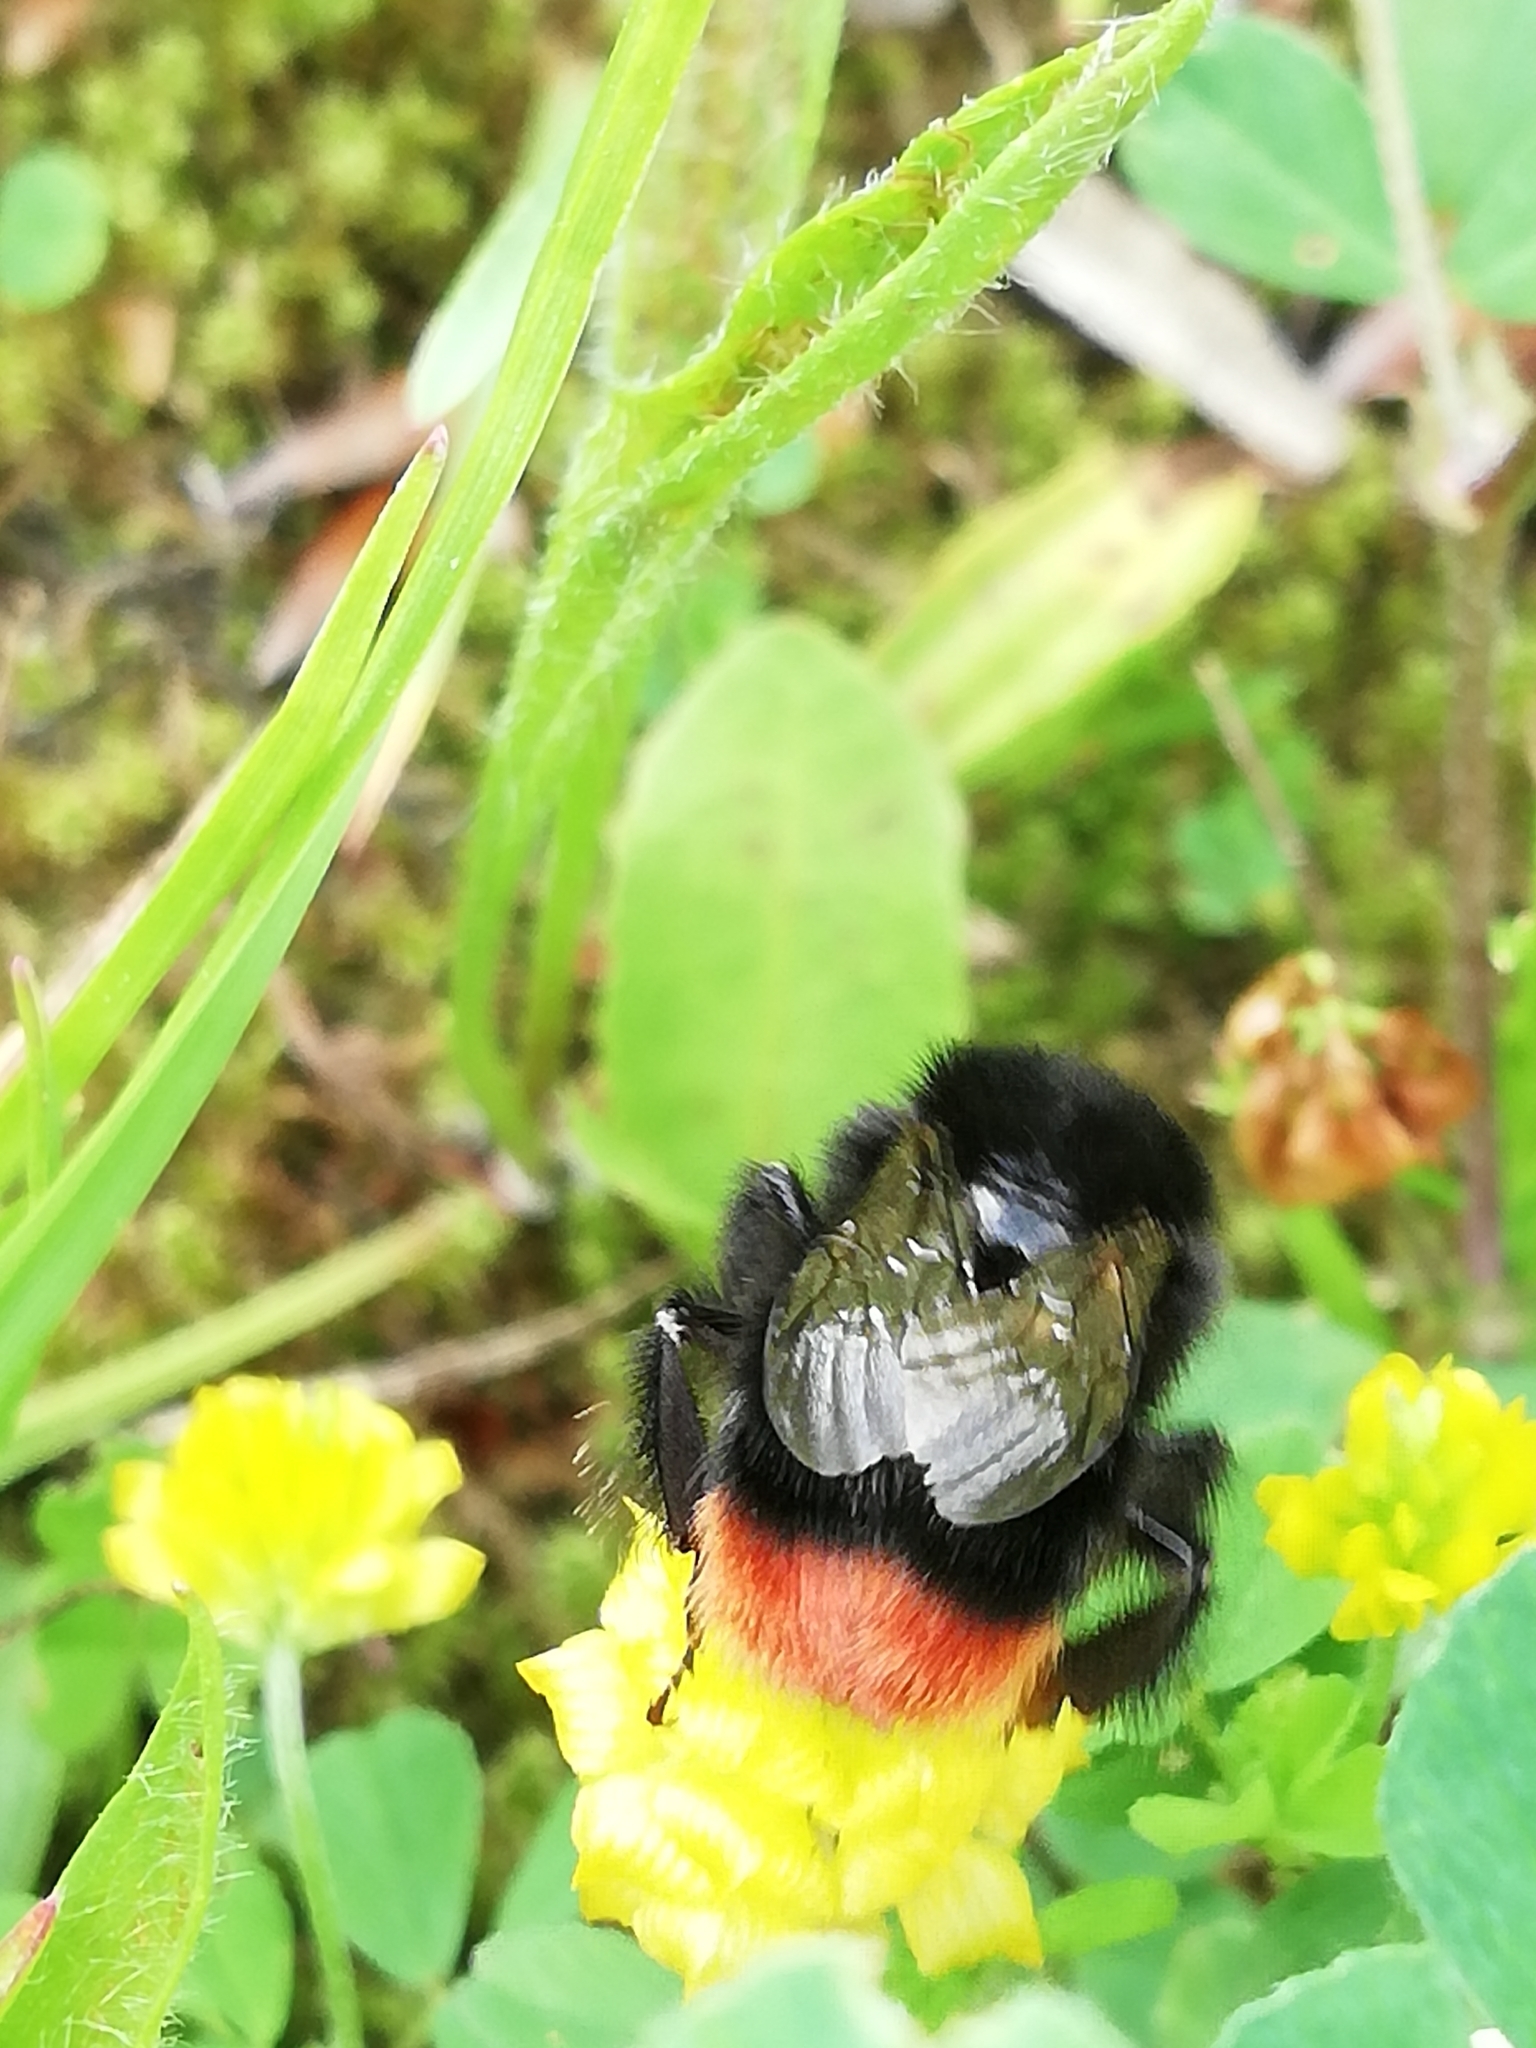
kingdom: Animalia
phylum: Arthropoda
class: Insecta
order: Hymenoptera
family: Apidae
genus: Bombus
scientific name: Bombus lapidarius
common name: Large red-tailed humble-bee
